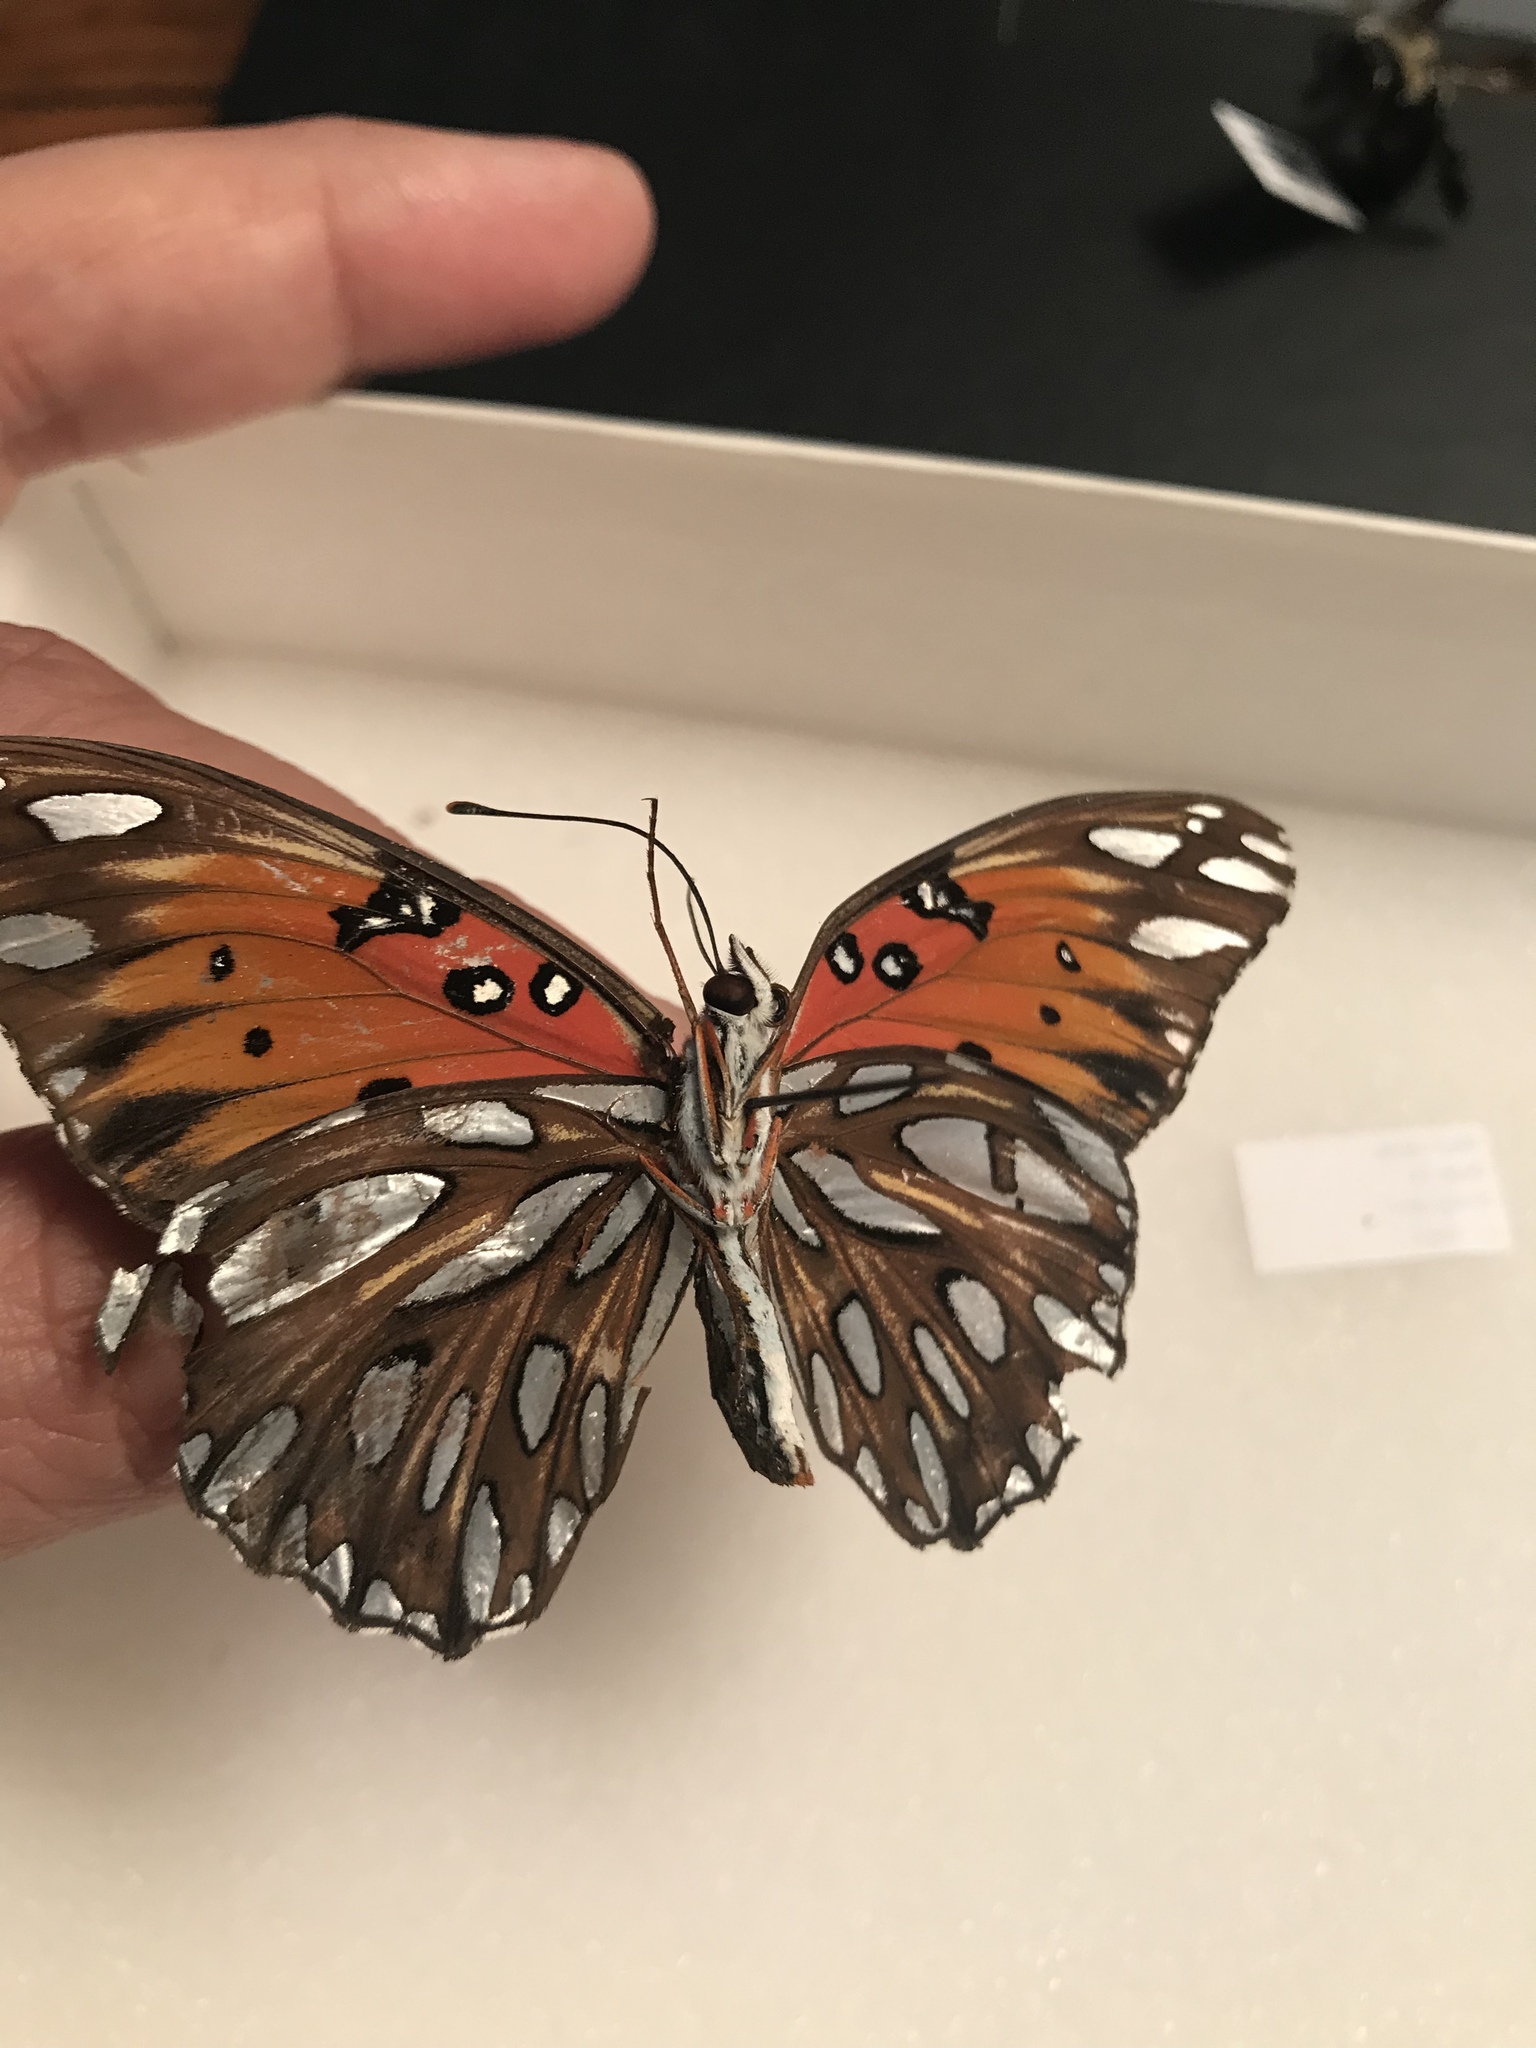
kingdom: Animalia
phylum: Arthropoda
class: Insecta
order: Lepidoptera
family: Nymphalidae
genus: Dione
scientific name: Dione vanillae
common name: Gulf fritillary
